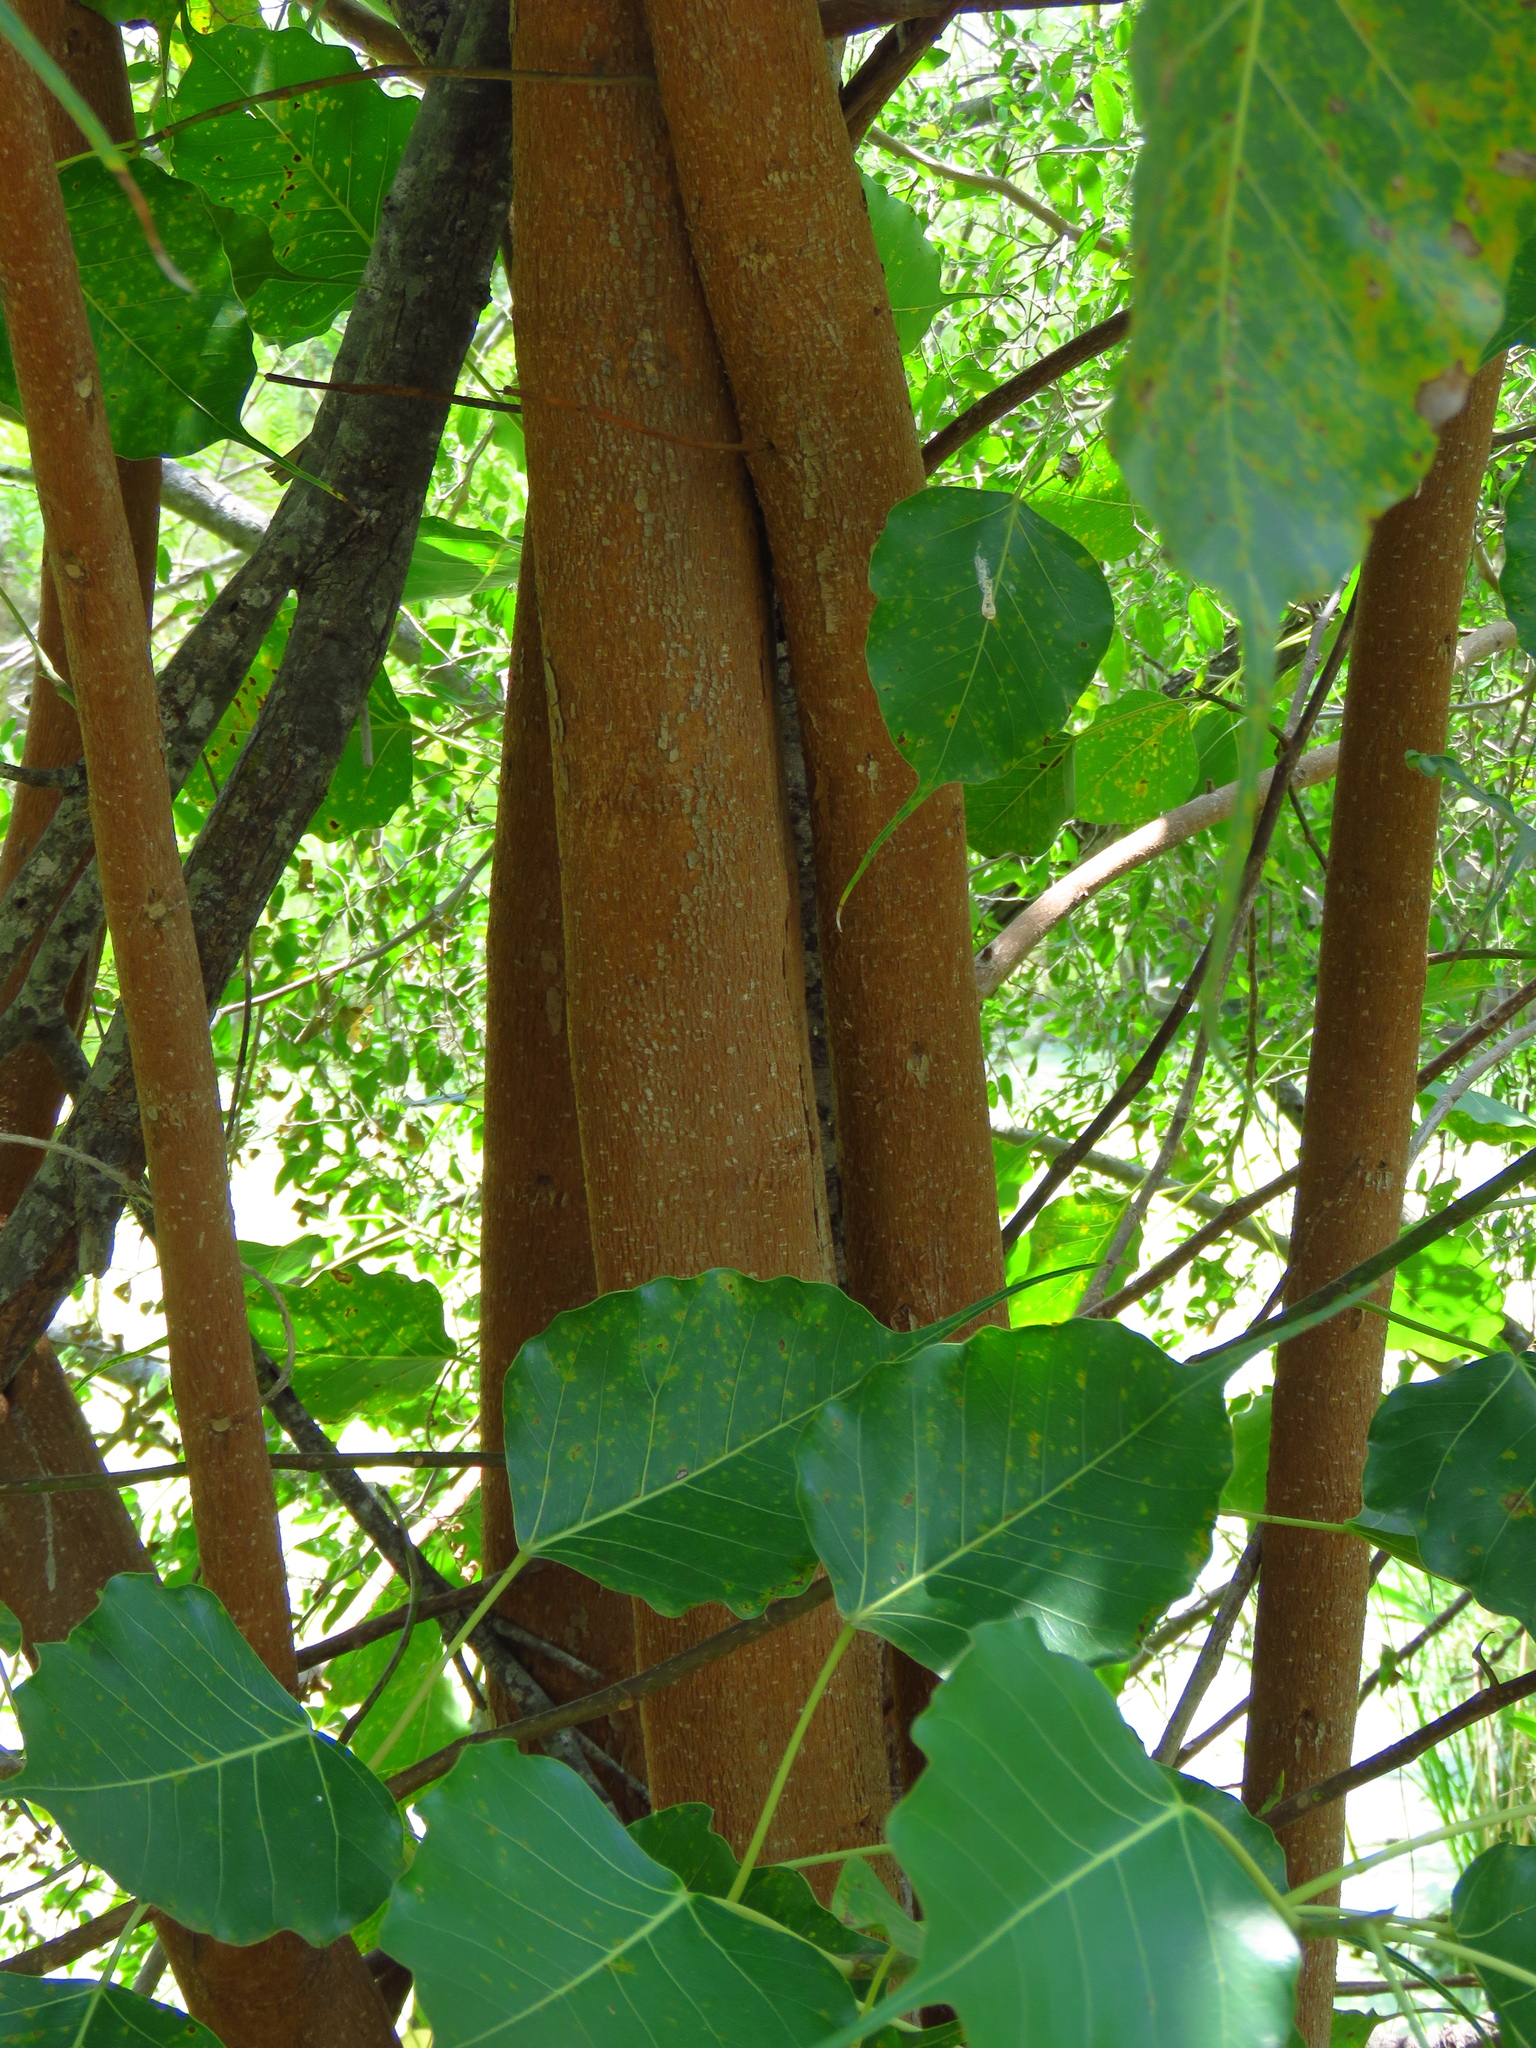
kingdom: Plantae
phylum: Tracheophyta
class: Magnoliopsida
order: Rosales
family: Moraceae
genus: Ficus
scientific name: Ficus religiosa
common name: Bodhi tree
